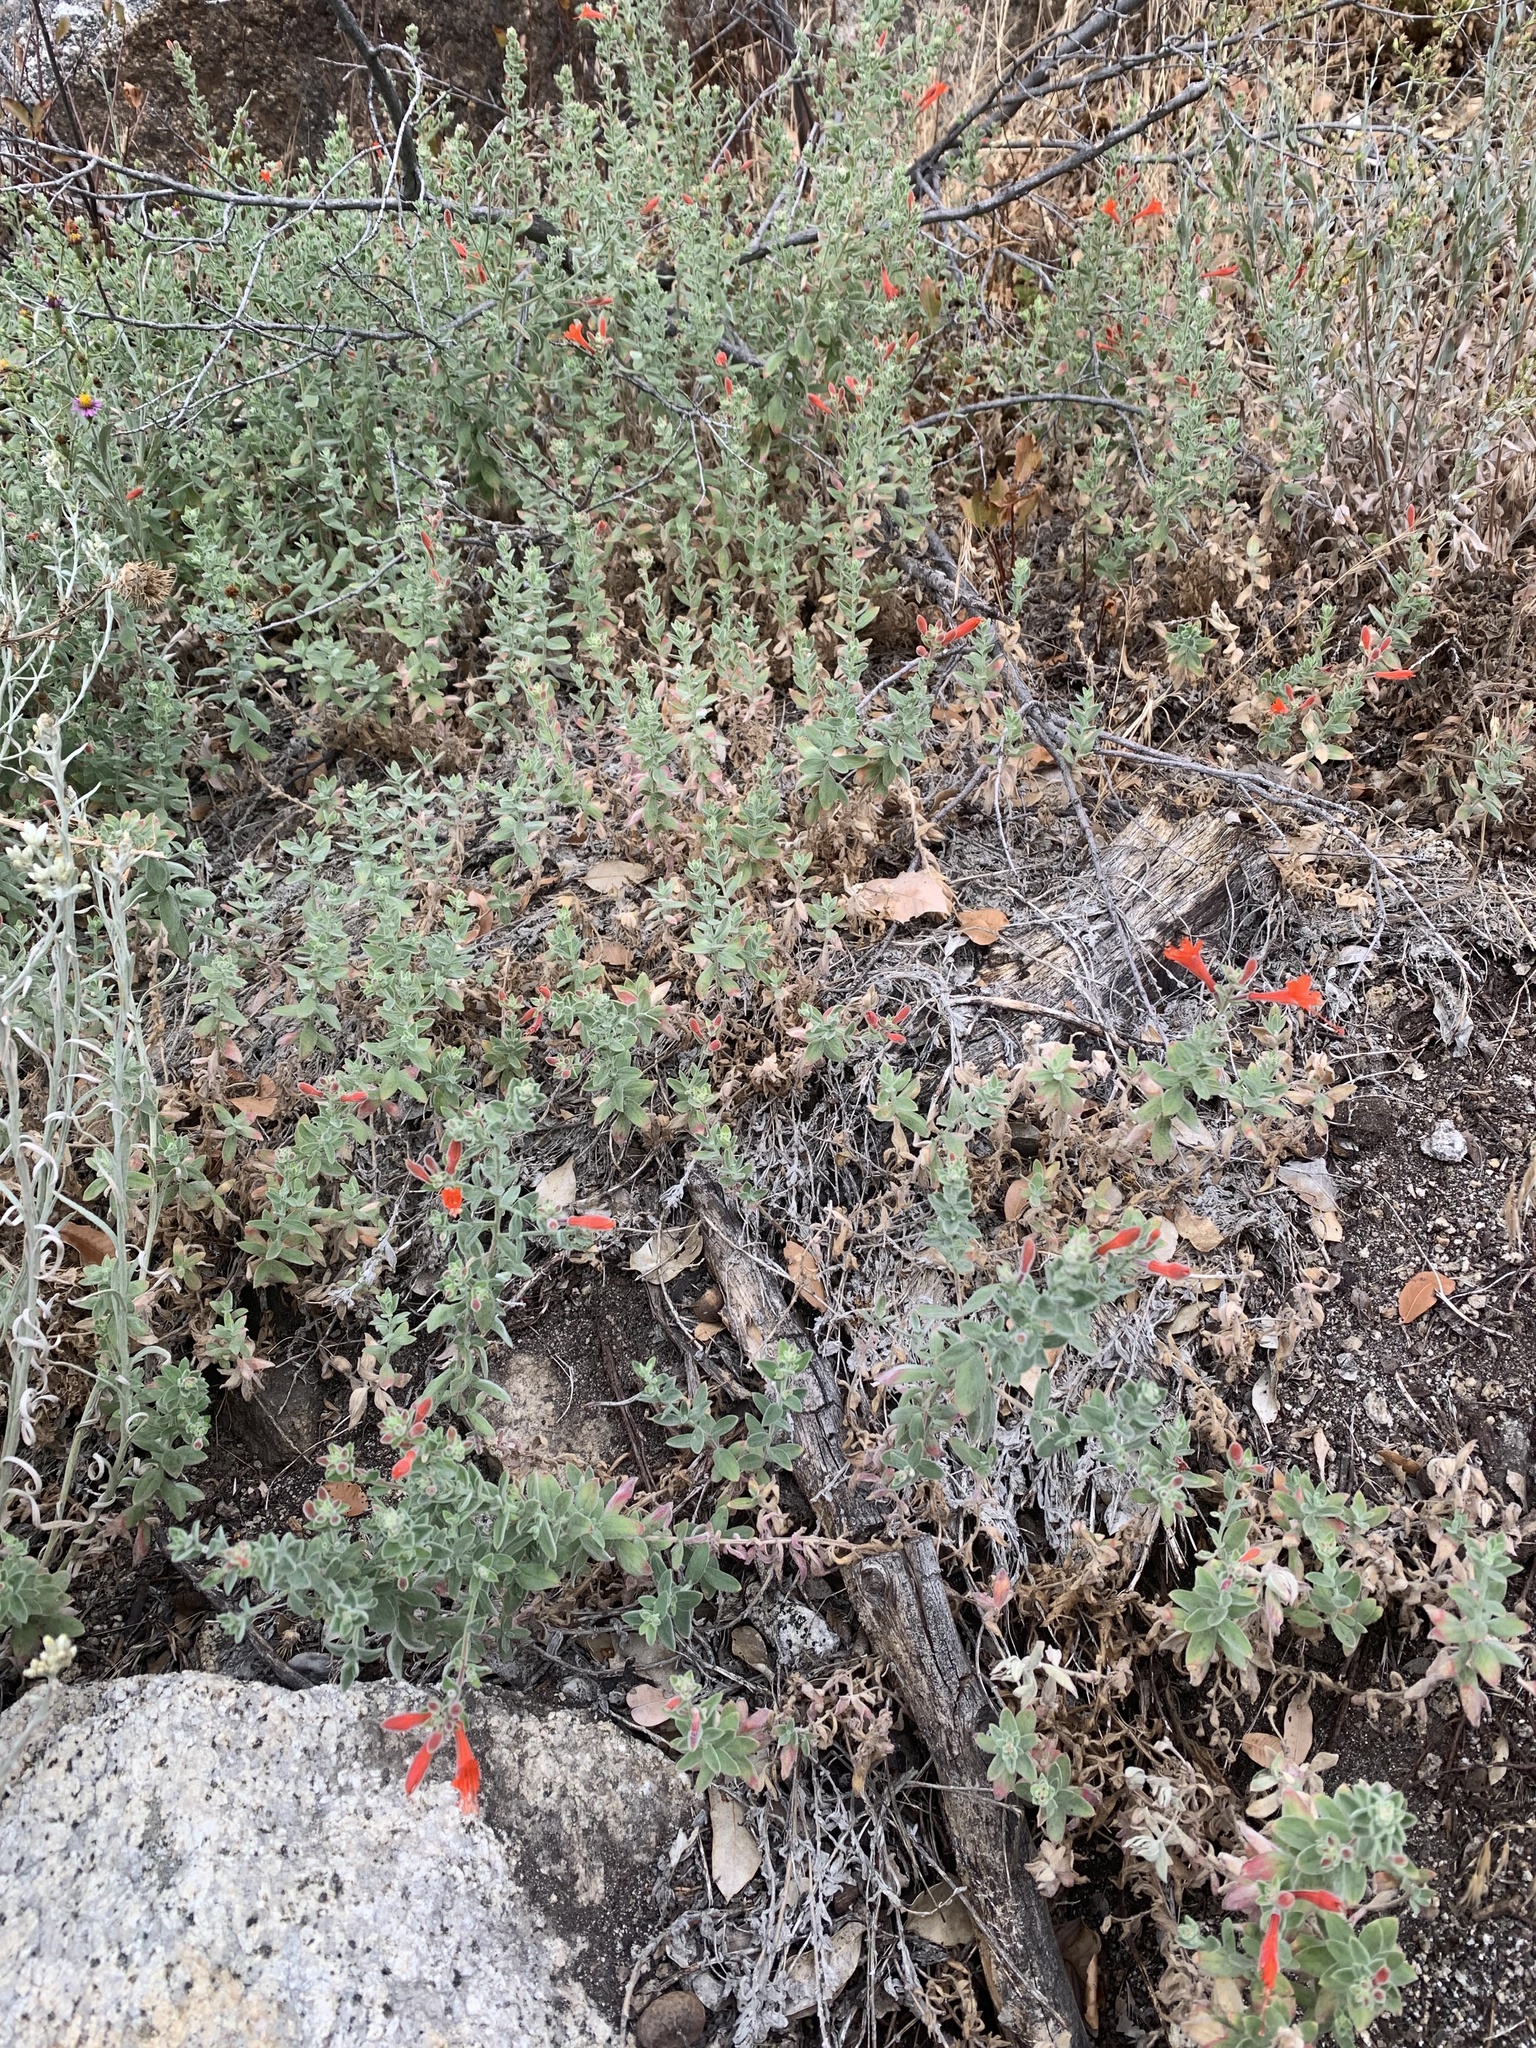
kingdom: Plantae
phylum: Tracheophyta
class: Magnoliopsida
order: Myrtales
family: Onagraceae
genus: Epilobium
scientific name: Epilobium canum
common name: California-fuchsia
